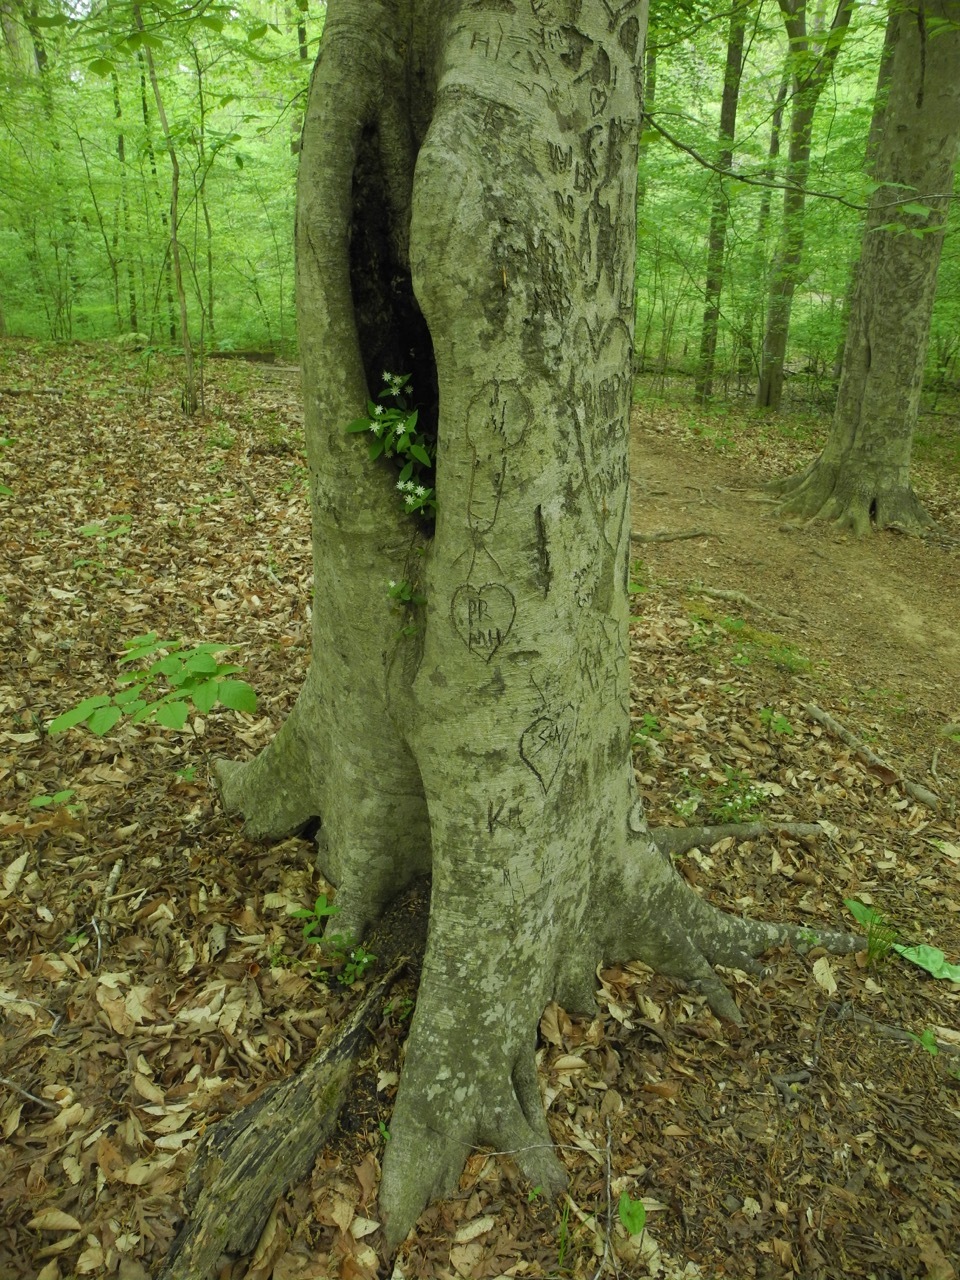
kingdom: Plantae
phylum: Tracheophyta
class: Magnoliopsida
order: Caryophyllales
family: Caryophyllaceae
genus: Stellaria
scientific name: Stellaria pubera
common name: Star chickweed
